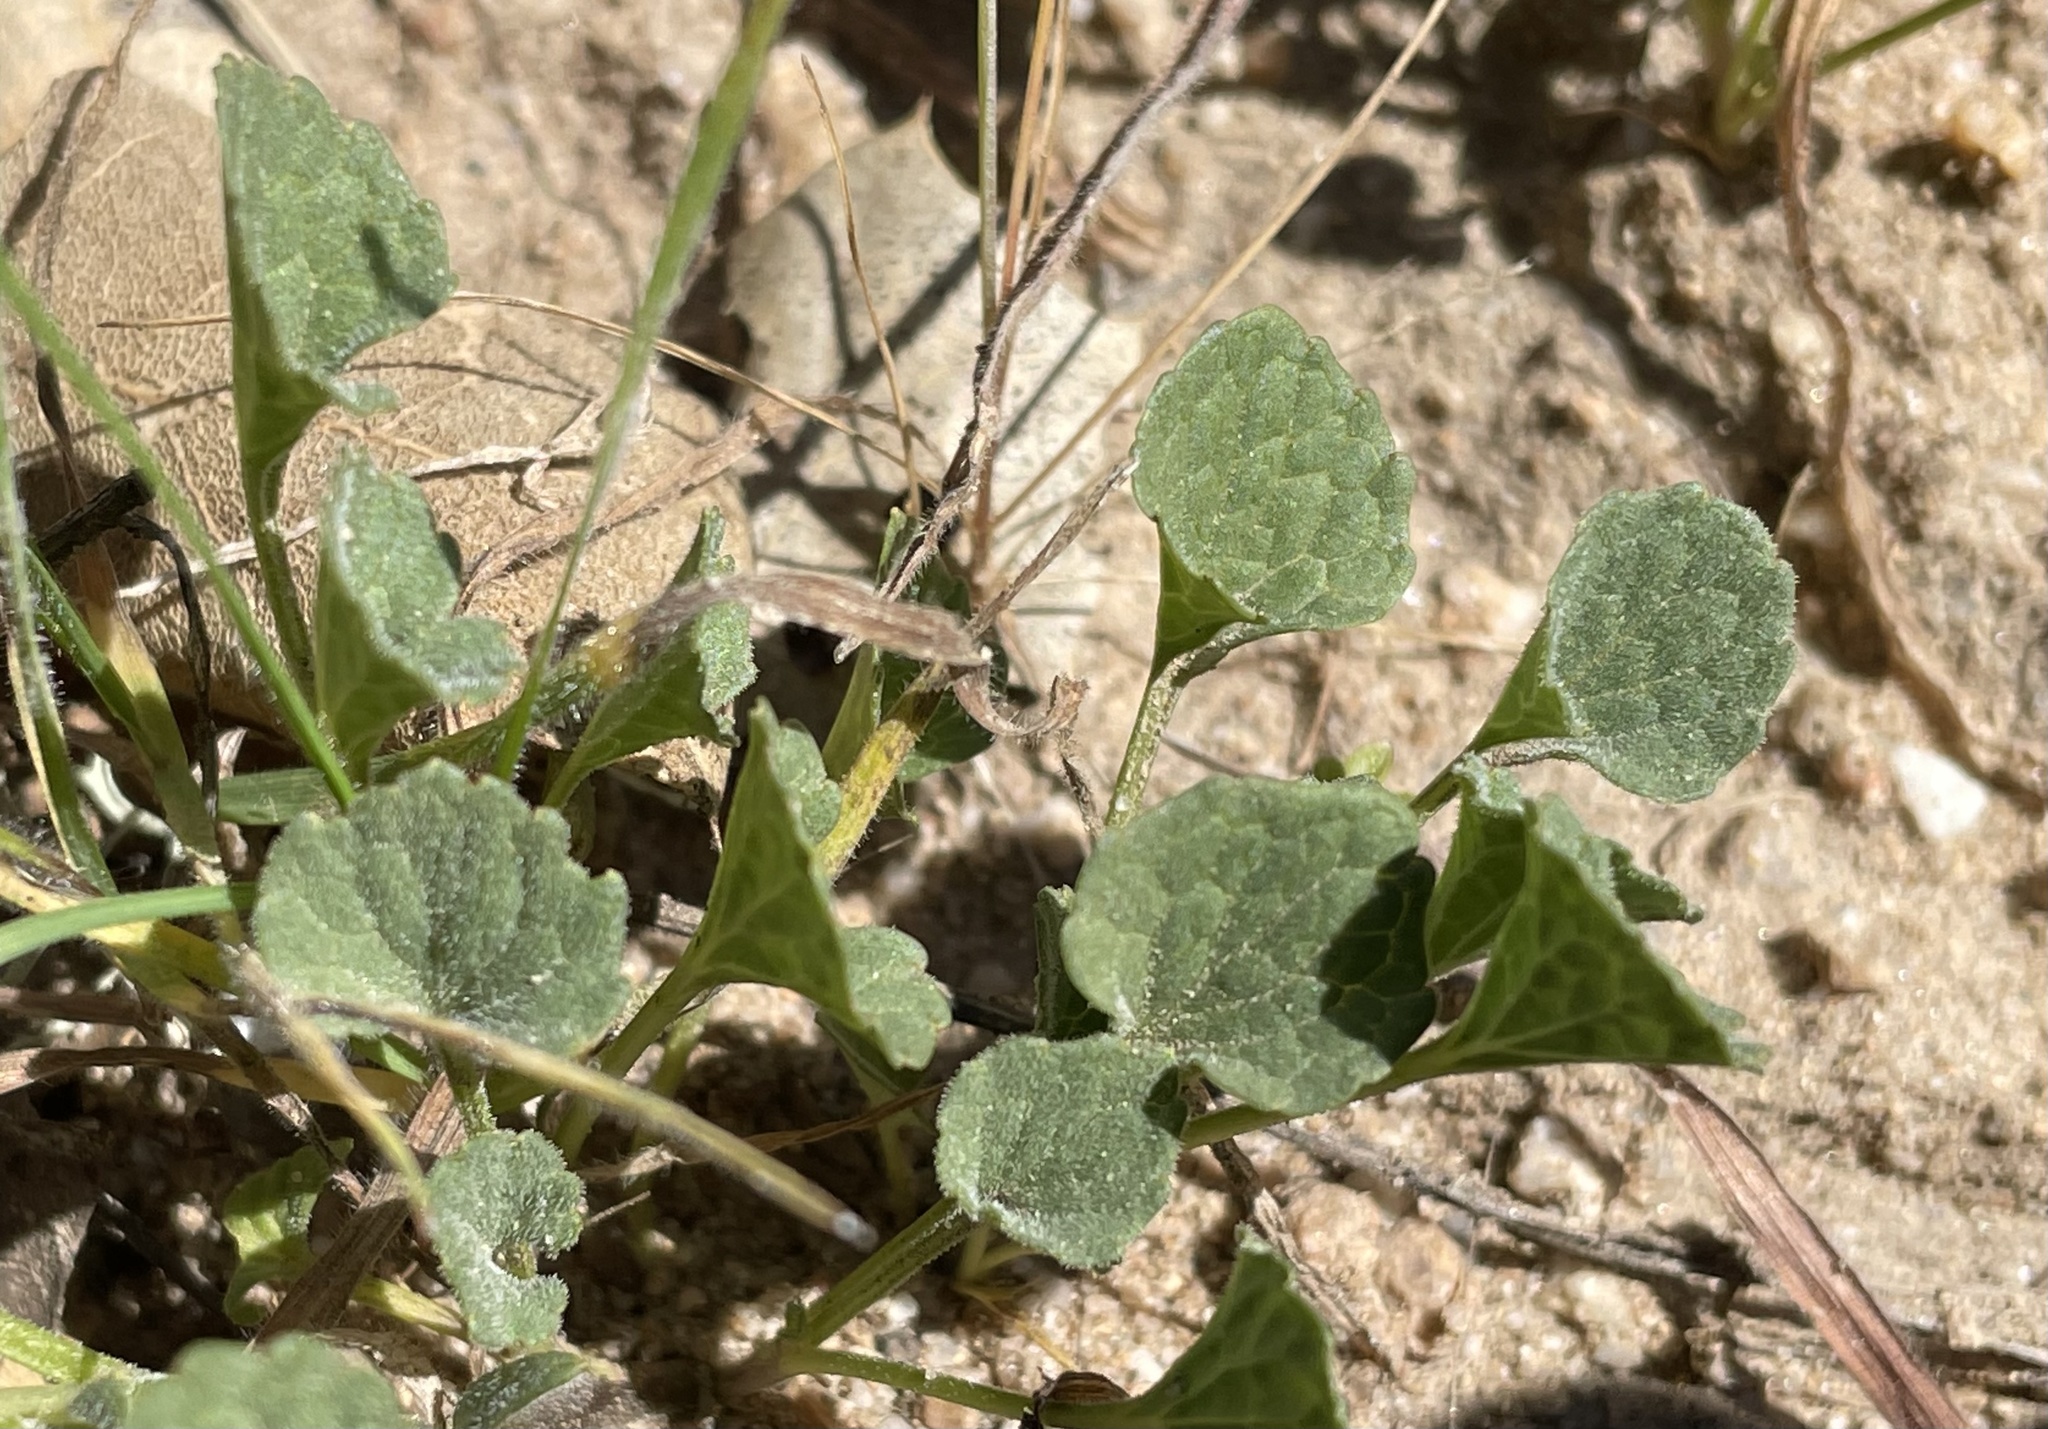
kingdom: Plantae
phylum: Tracheophyta
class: Magnoliopsida
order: Malpighiales
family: Violaceae
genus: Viola
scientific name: Viola pedunculata
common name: California golden violet
